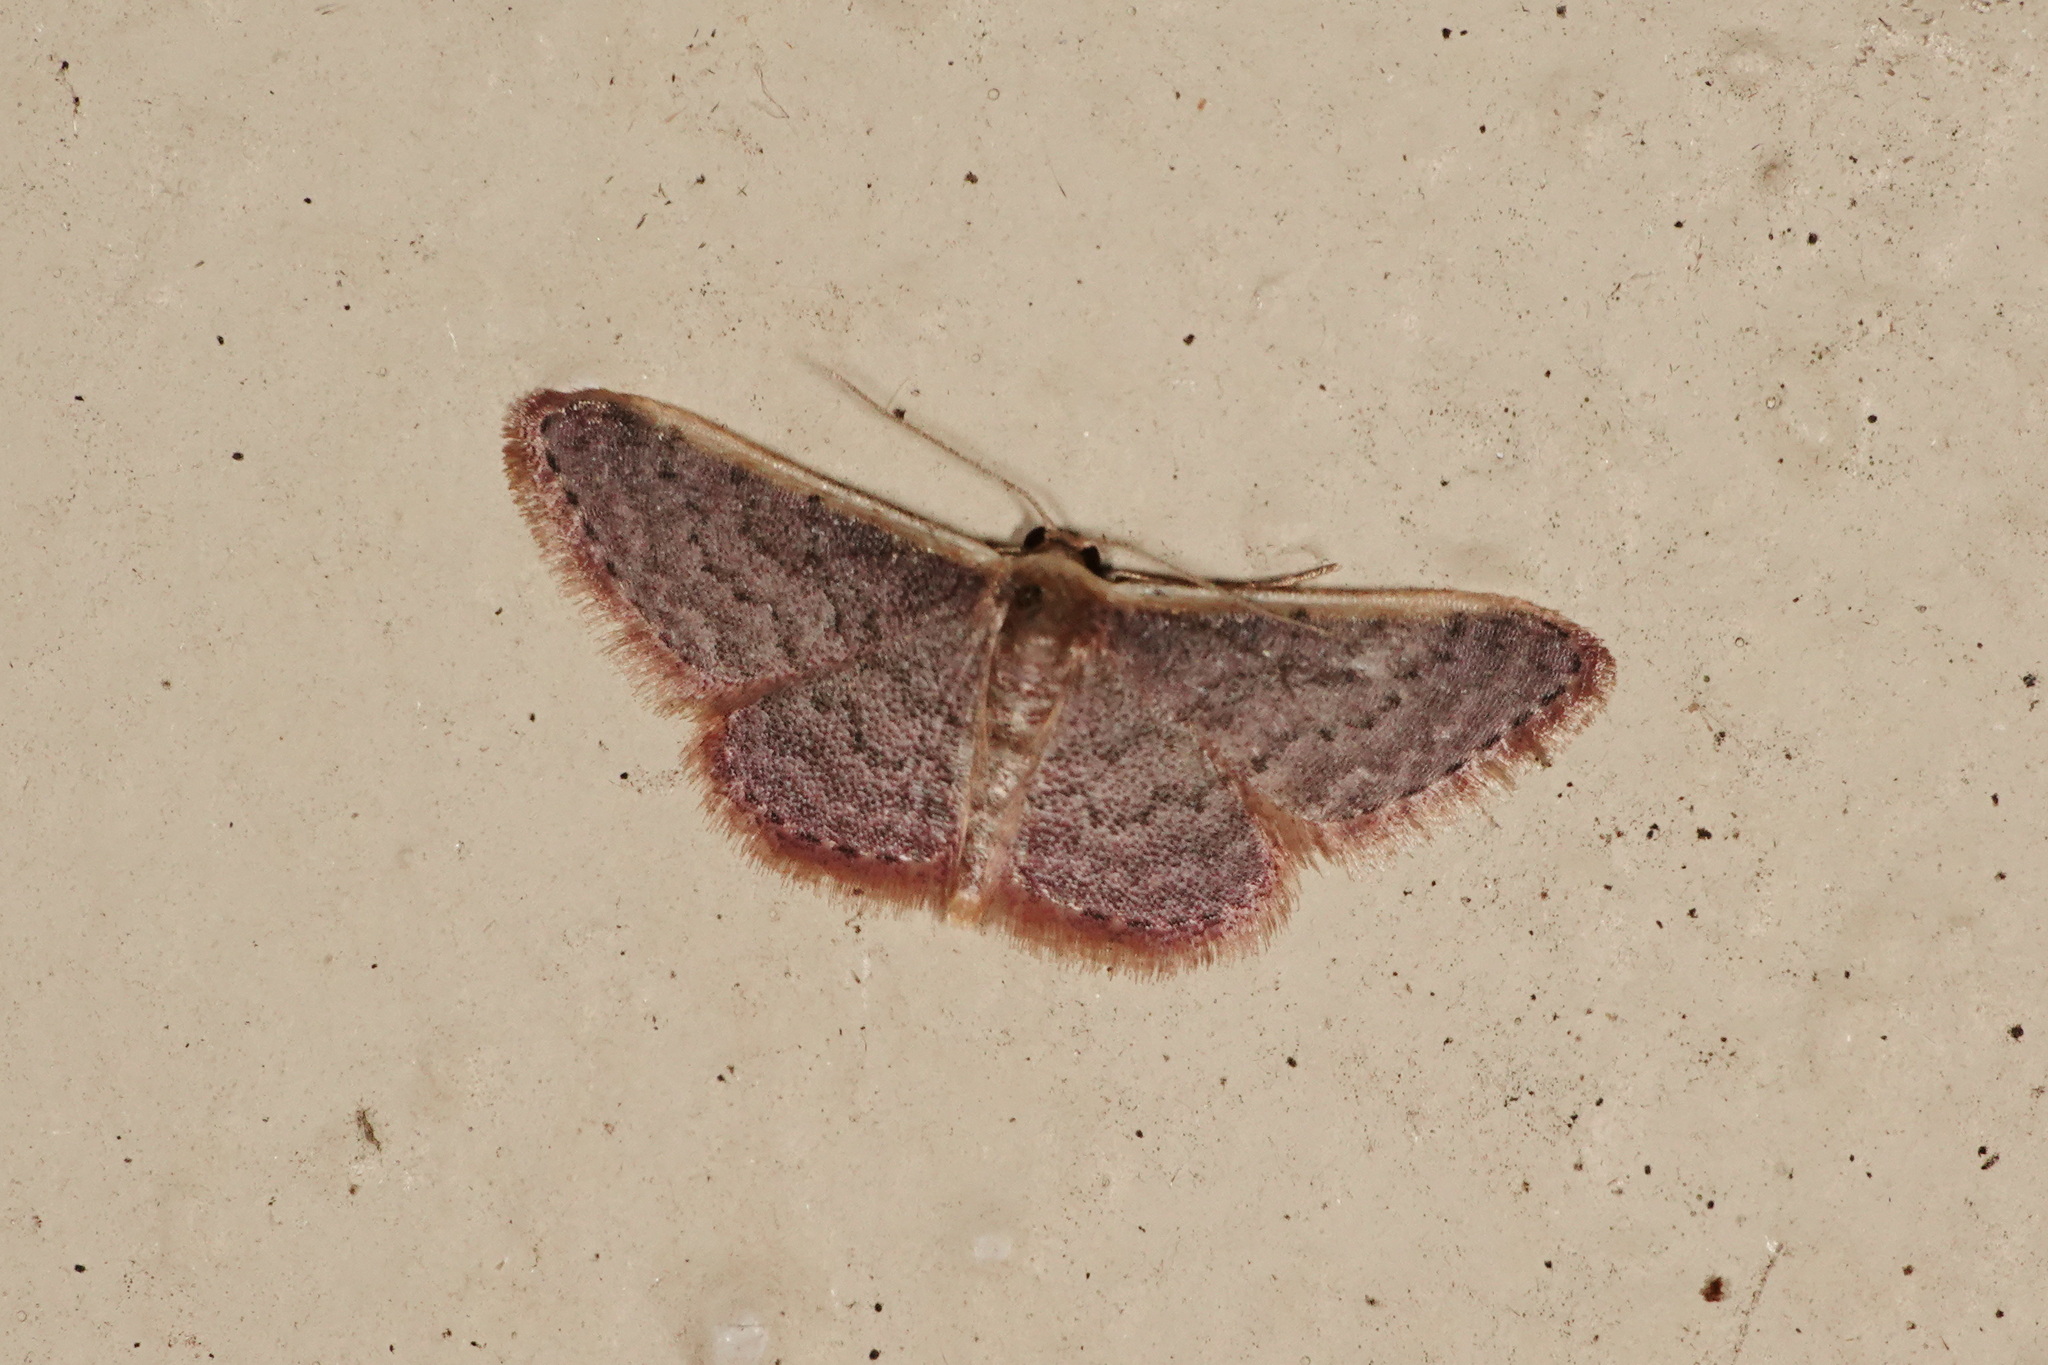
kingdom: Animalia
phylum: Arthropoda
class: Insecta
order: Lepidoptera
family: Geometridae
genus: Idaea
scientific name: Idaea inversata
